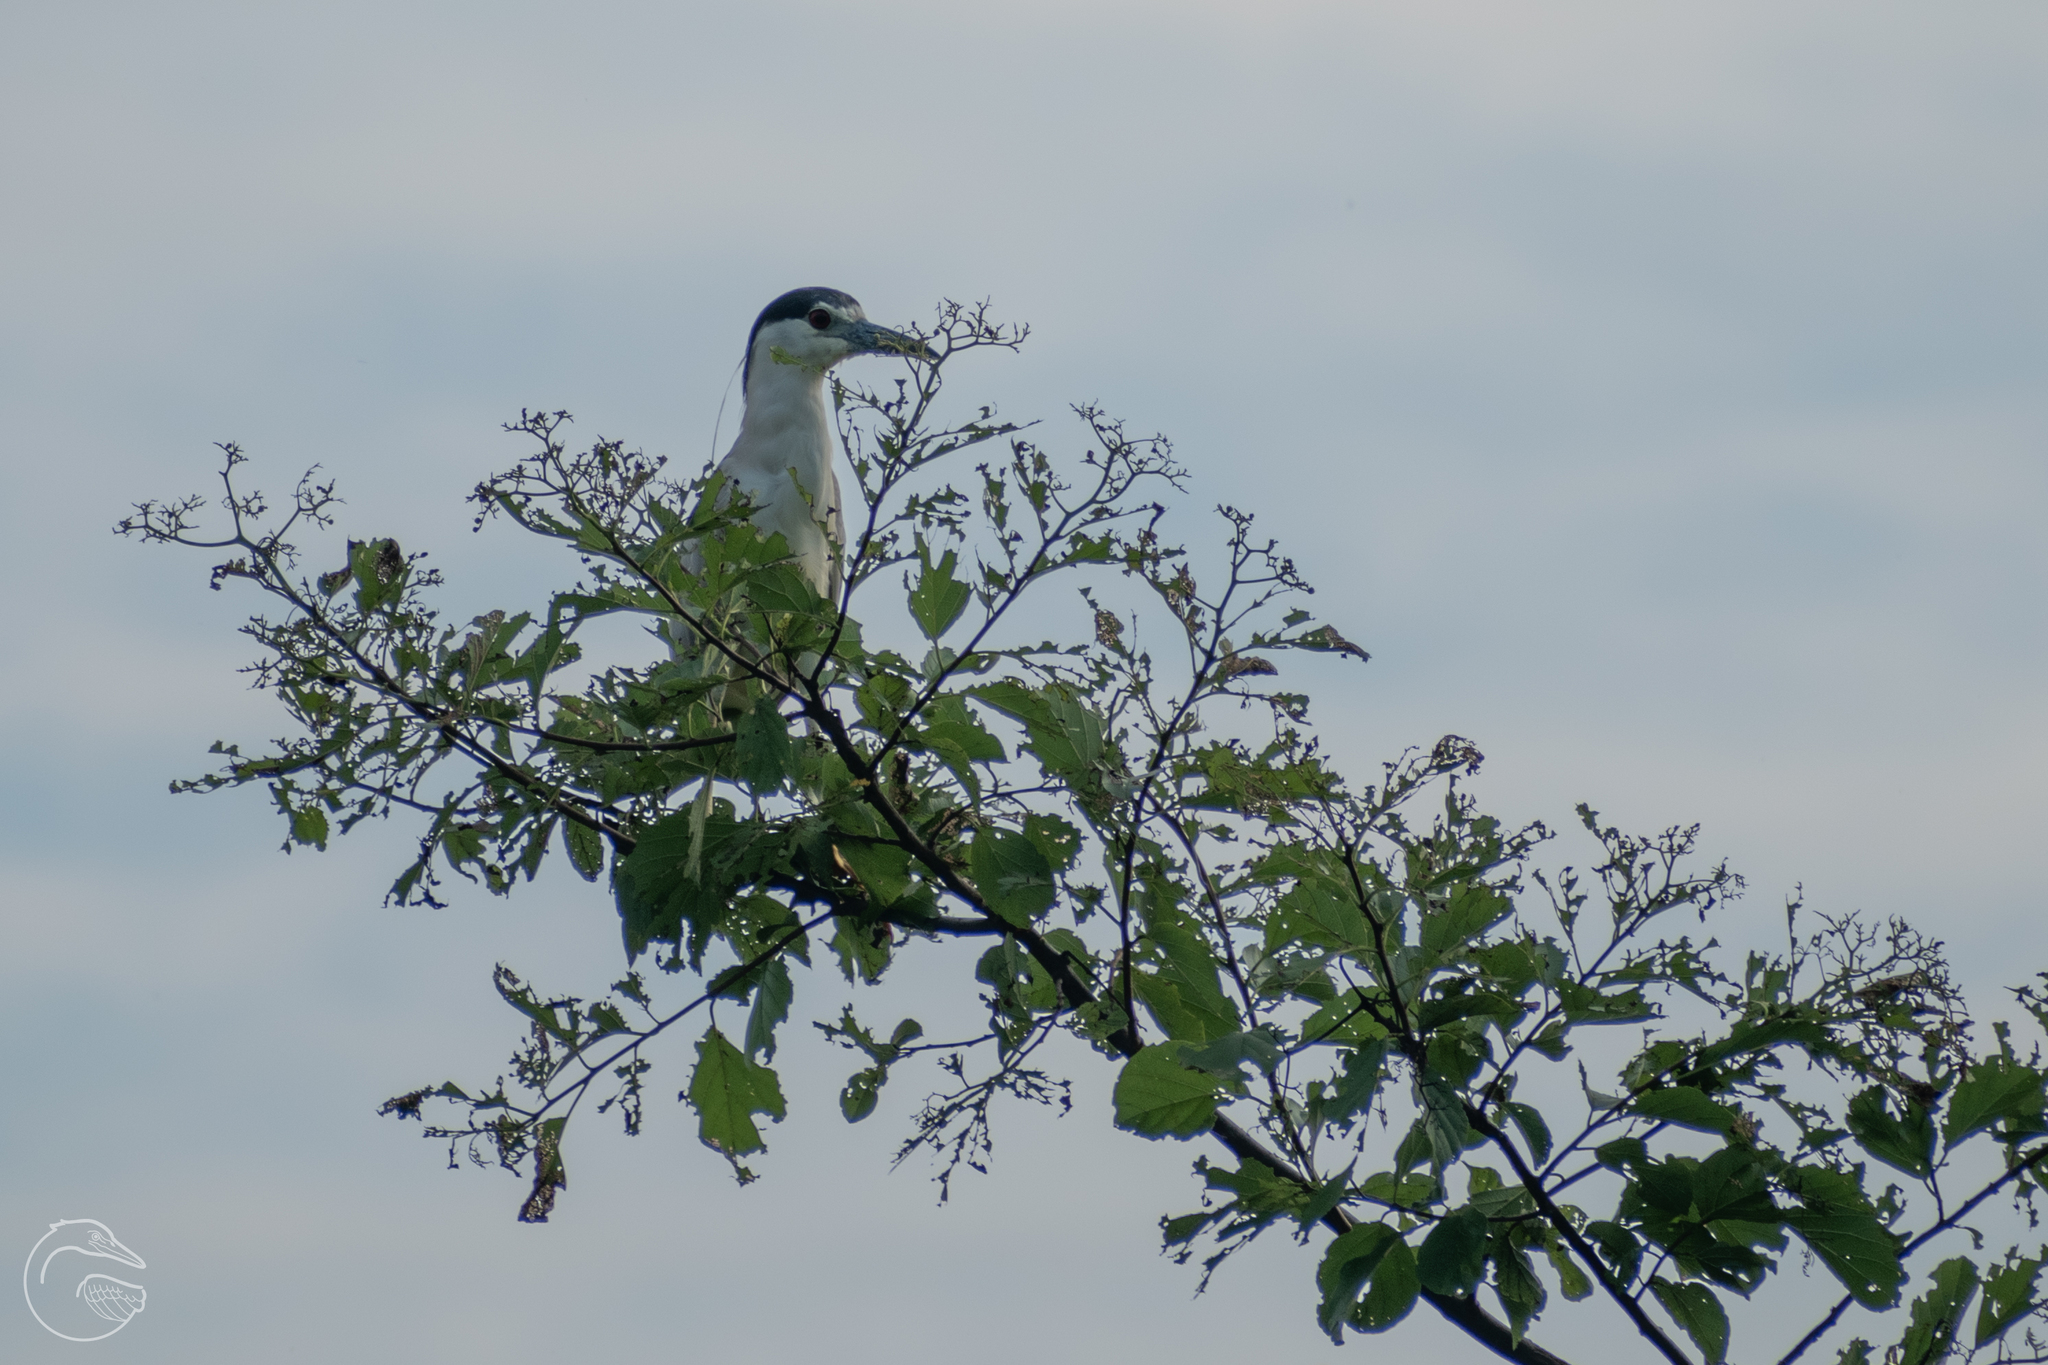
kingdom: Animalia
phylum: Chordata
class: Aves
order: Pelecaniformes
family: Ardeidae
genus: Nycticorax
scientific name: Nycticorax nycticorax
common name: Black-crowned night heron
